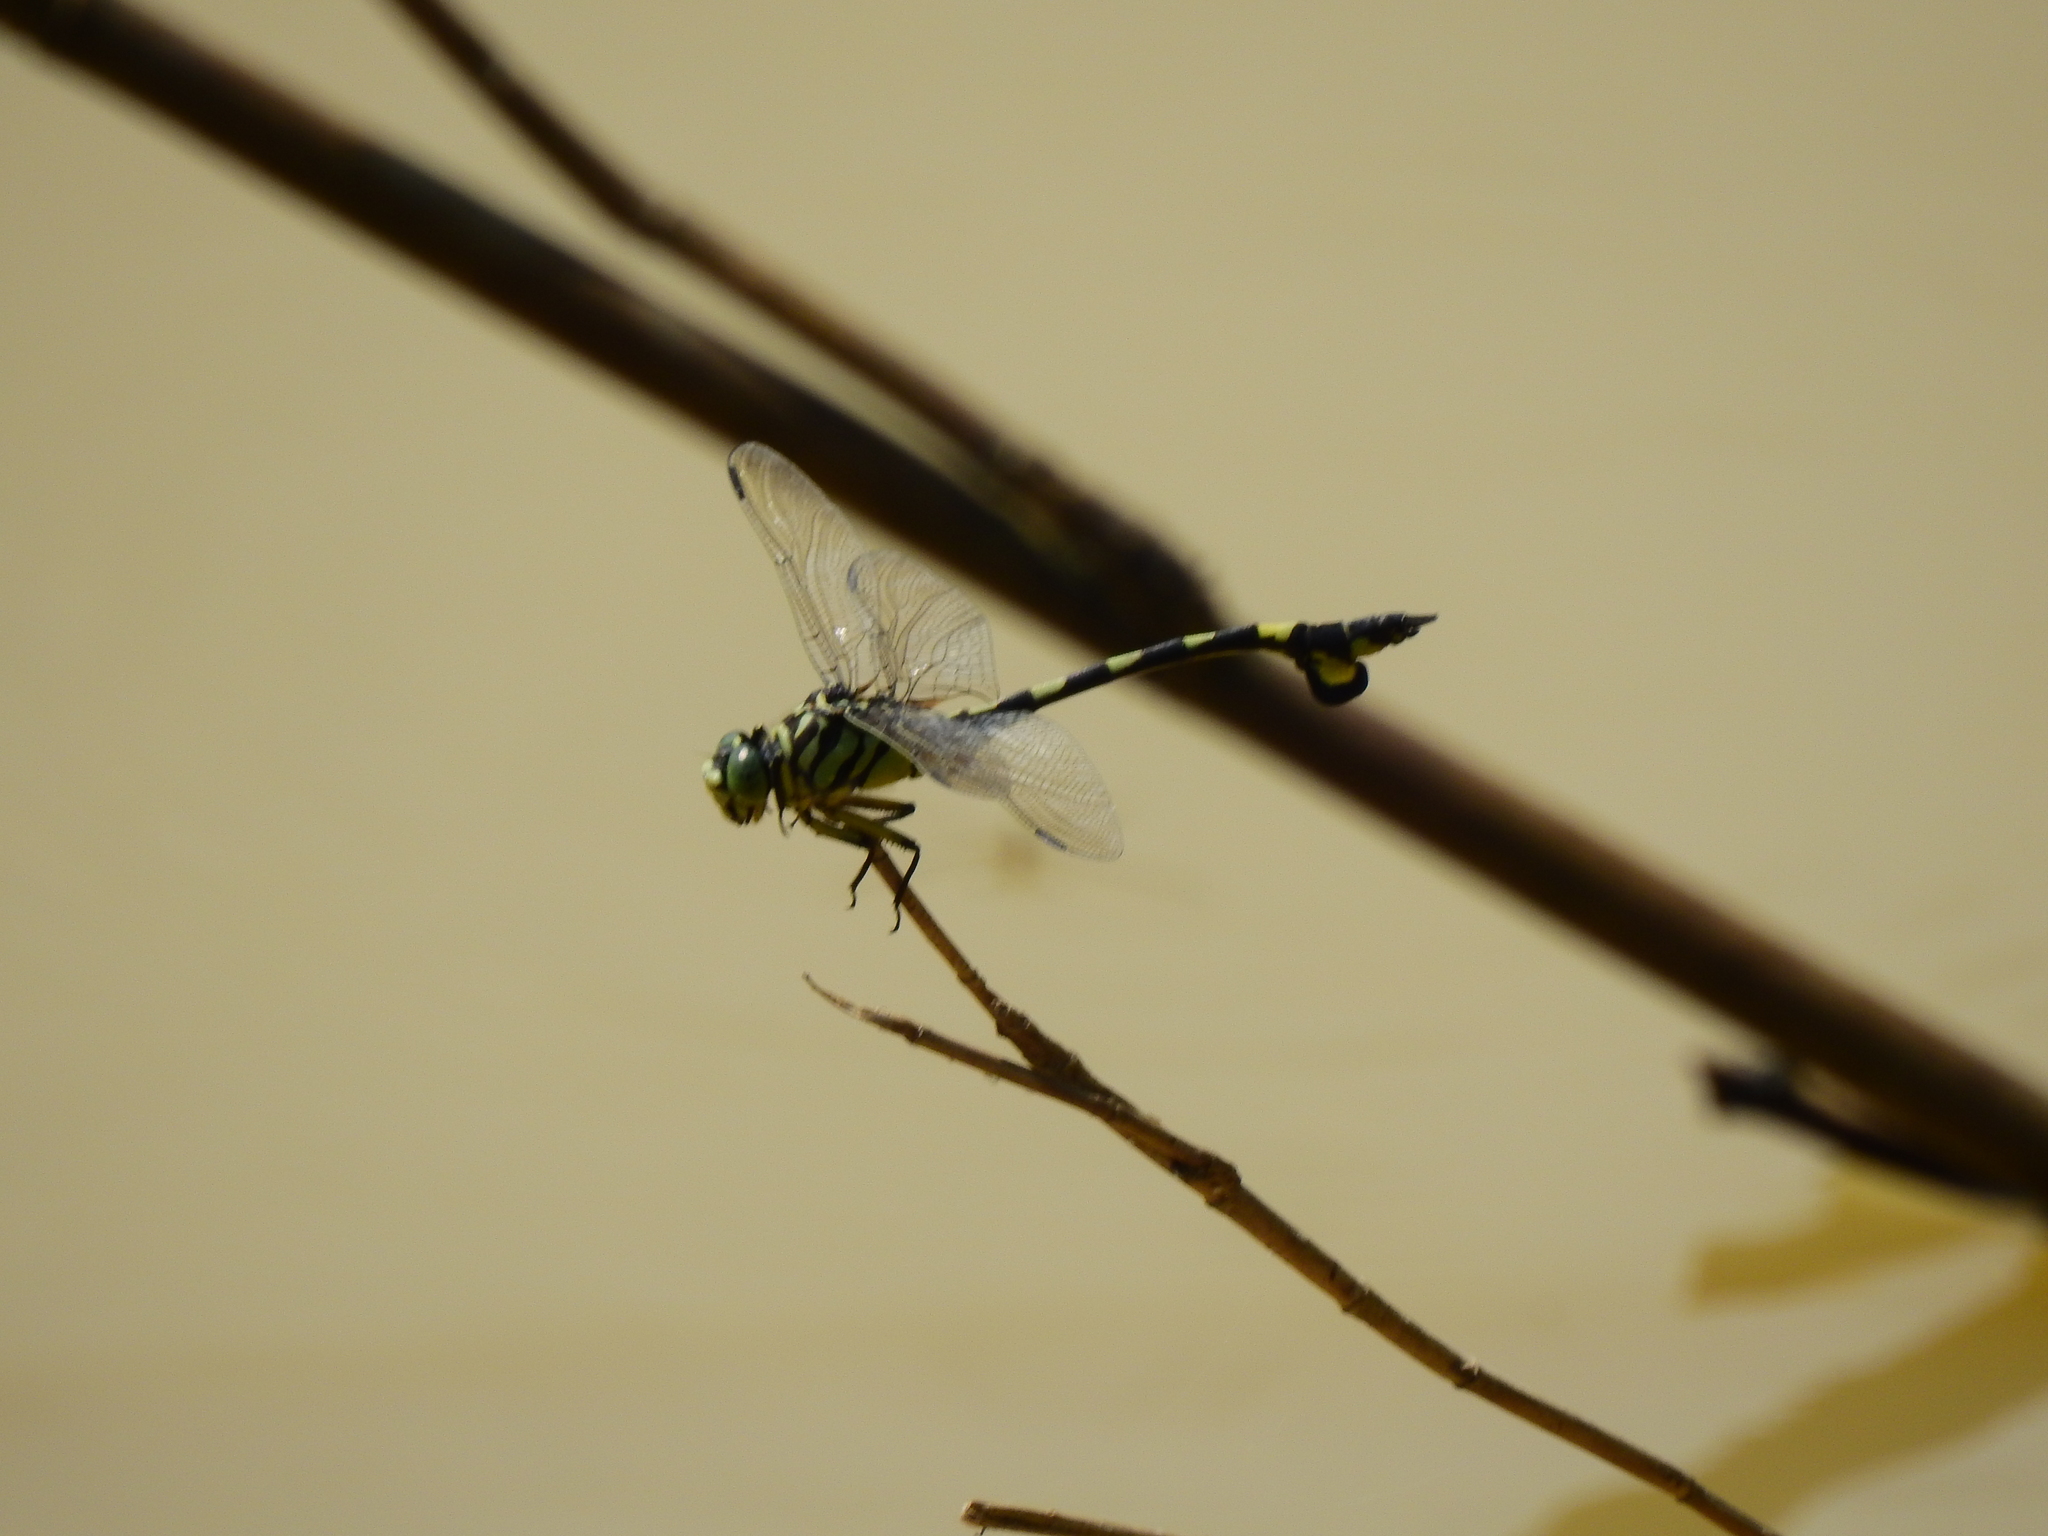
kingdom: Animalia
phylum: Arthropoda
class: Insecta
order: Odonata
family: Gomphidae
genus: Sinictinogomphus
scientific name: Sinictinogomphus clavatus
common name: Golden flangetail
